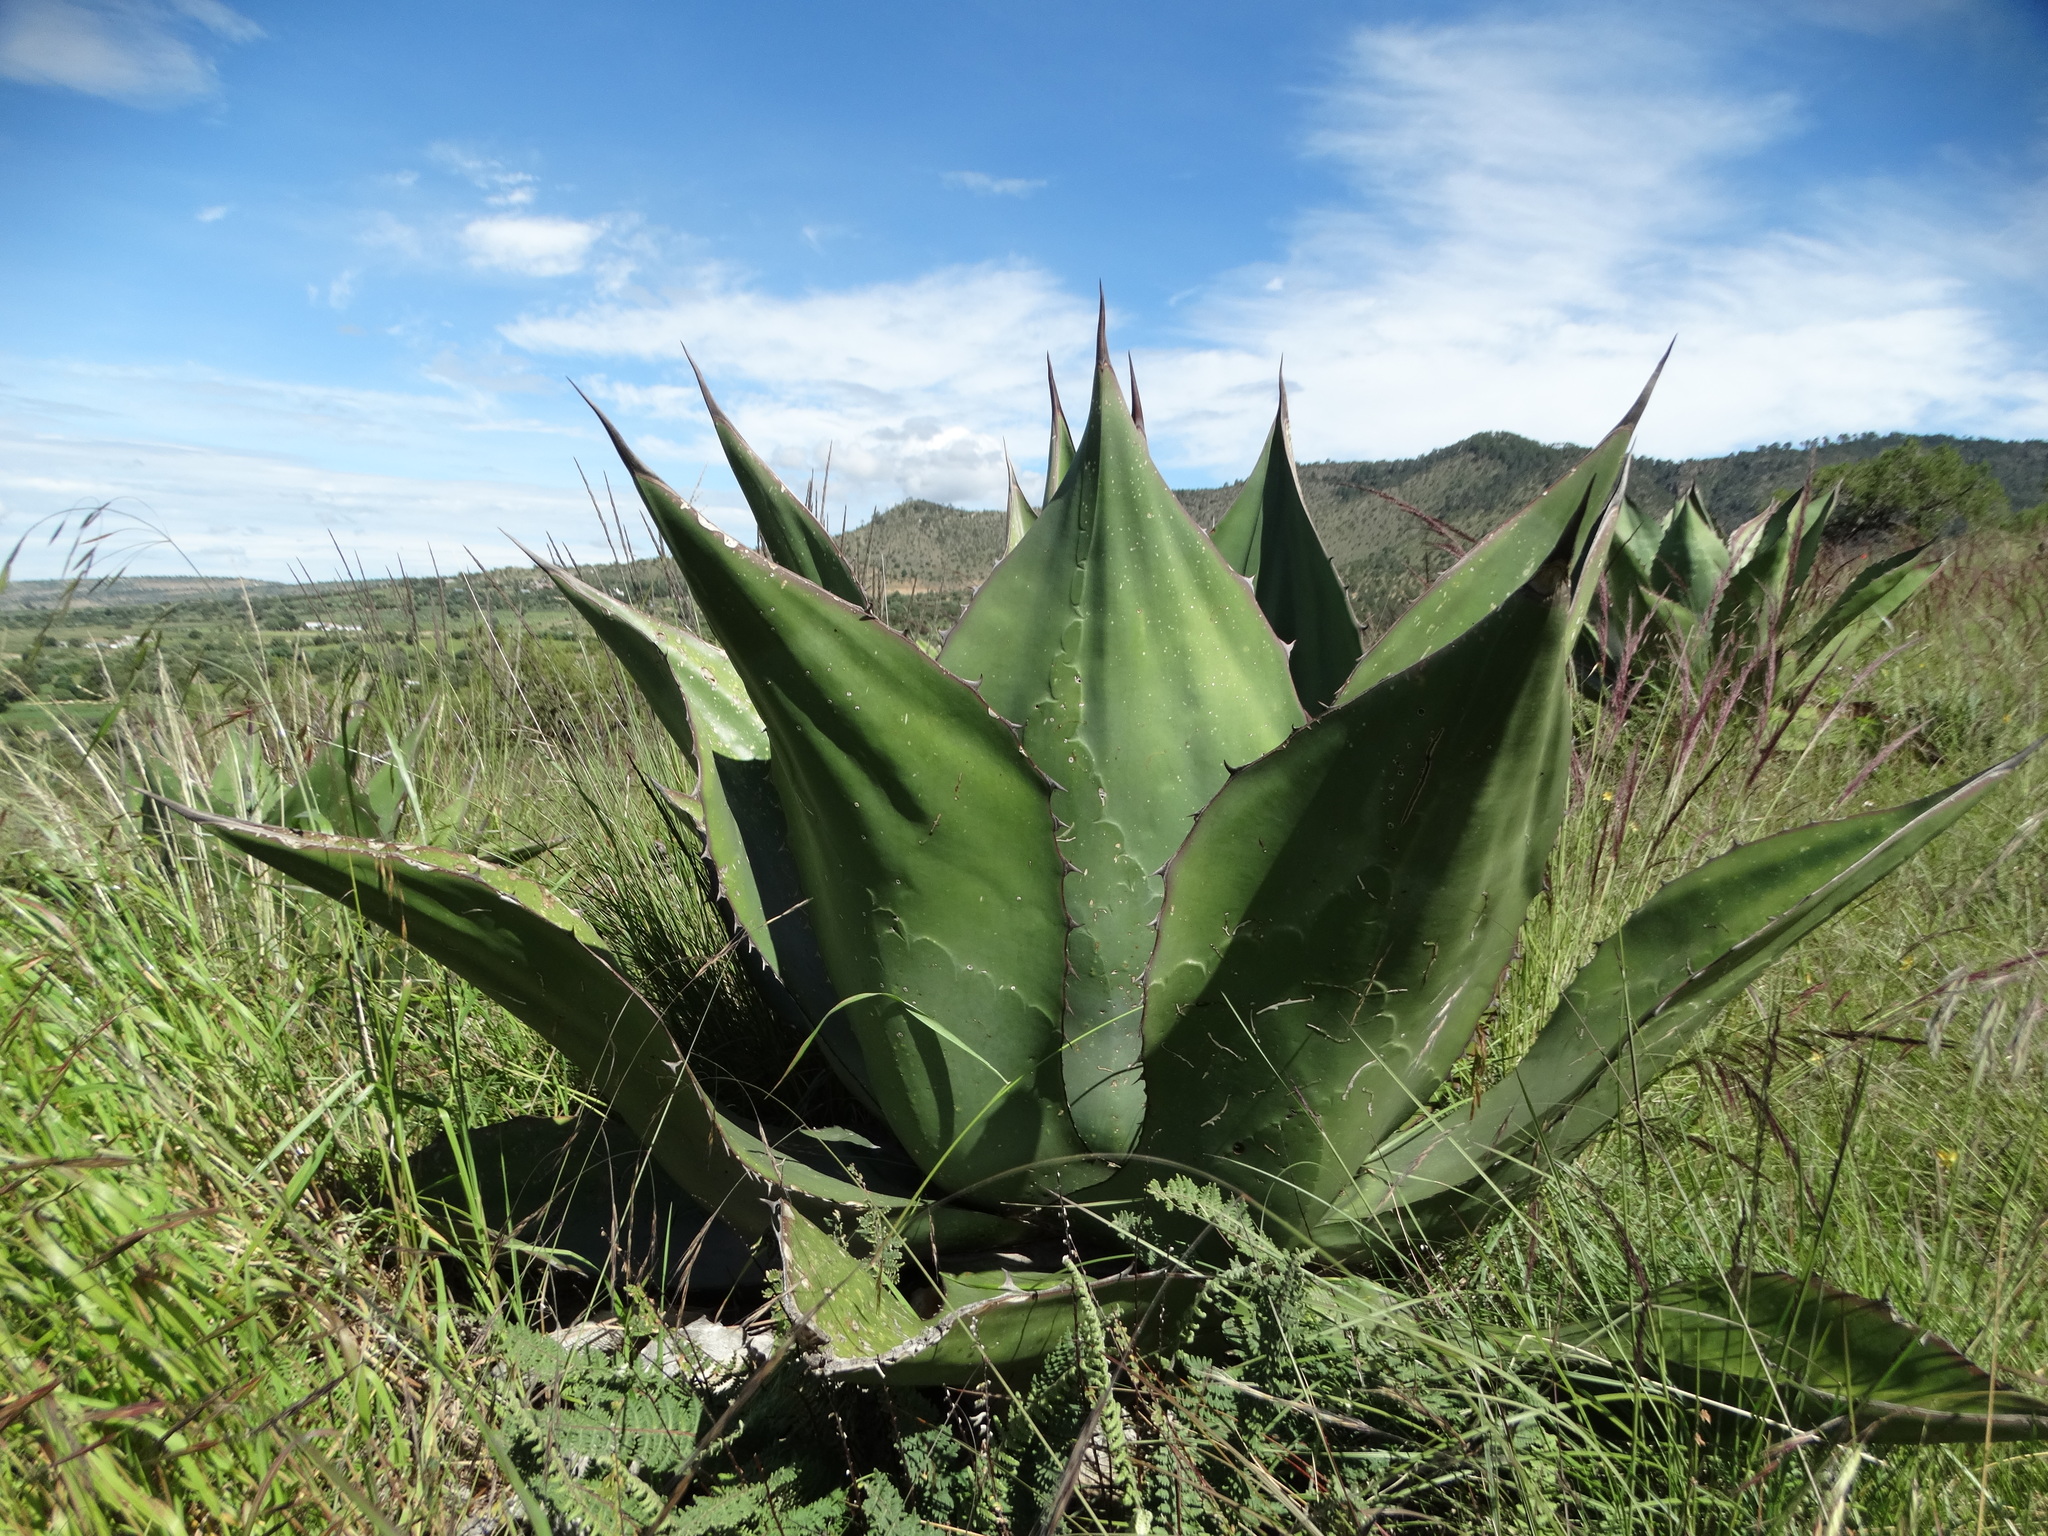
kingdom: Plantae
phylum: Tracheophyta
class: Liliopsida
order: Asparagales
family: Asparagaceae
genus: Agave
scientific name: Agave salmiana
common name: Pulque agave
